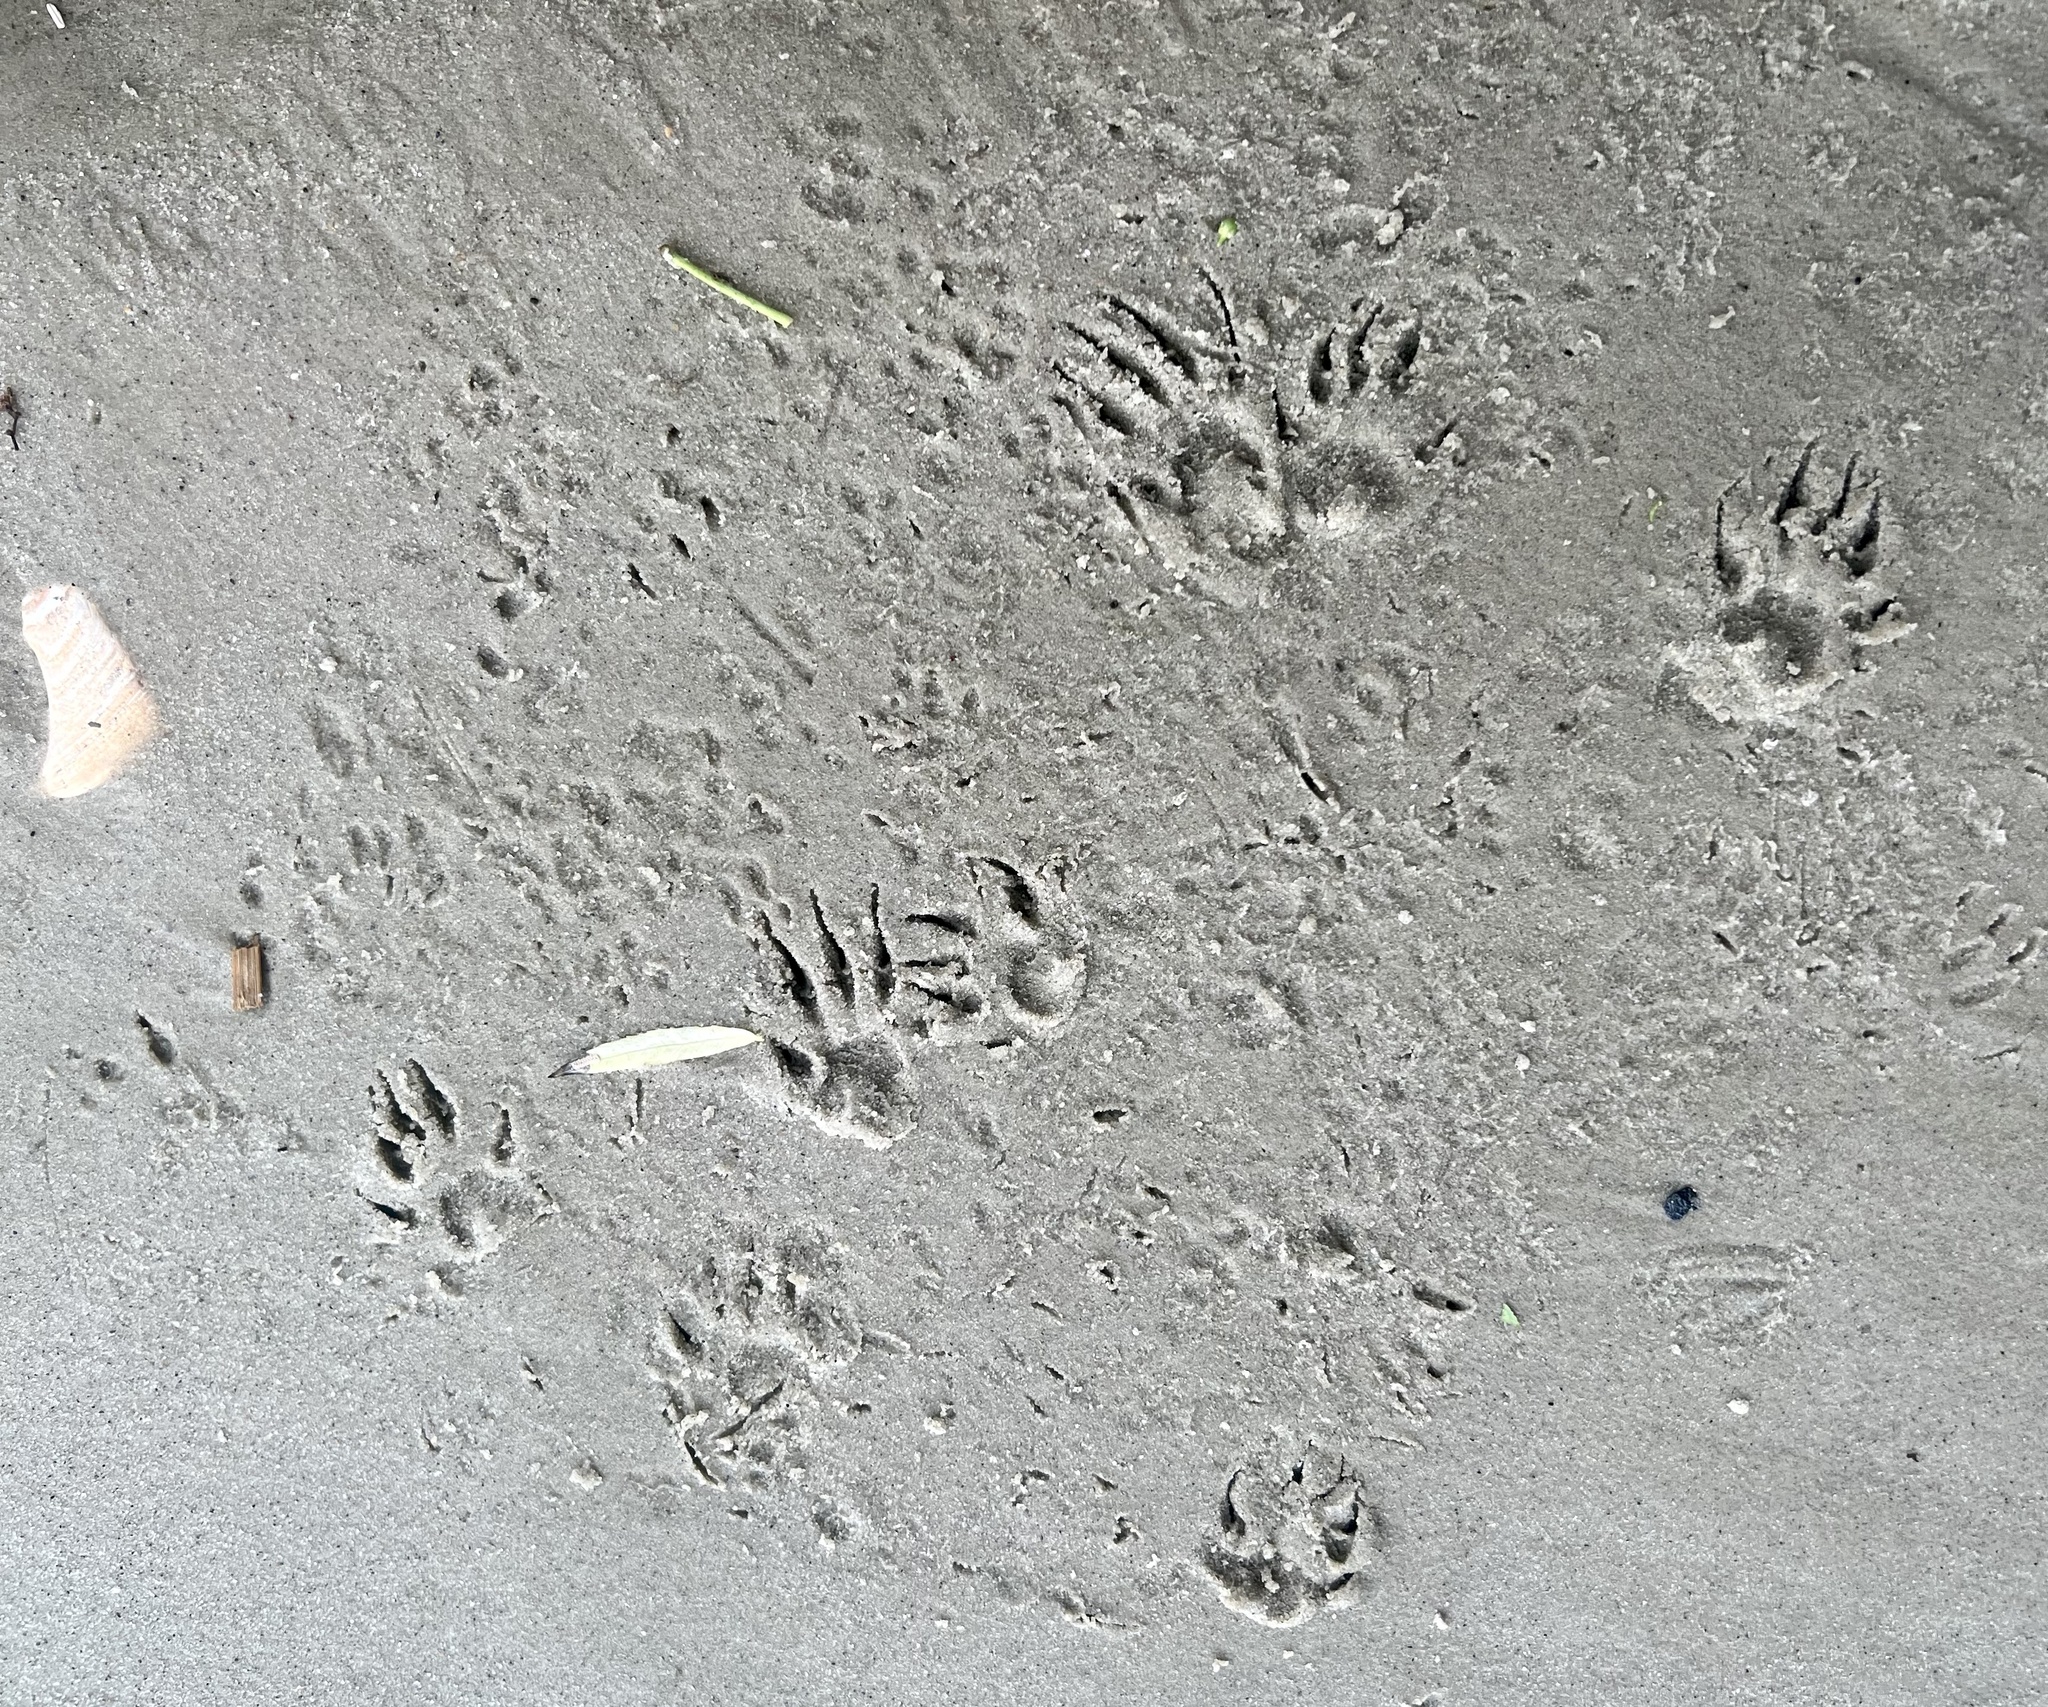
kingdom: Animalia
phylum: Chordata
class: Mammalia
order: Carnivora
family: Mustelidae
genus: Mustela
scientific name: Mustela
